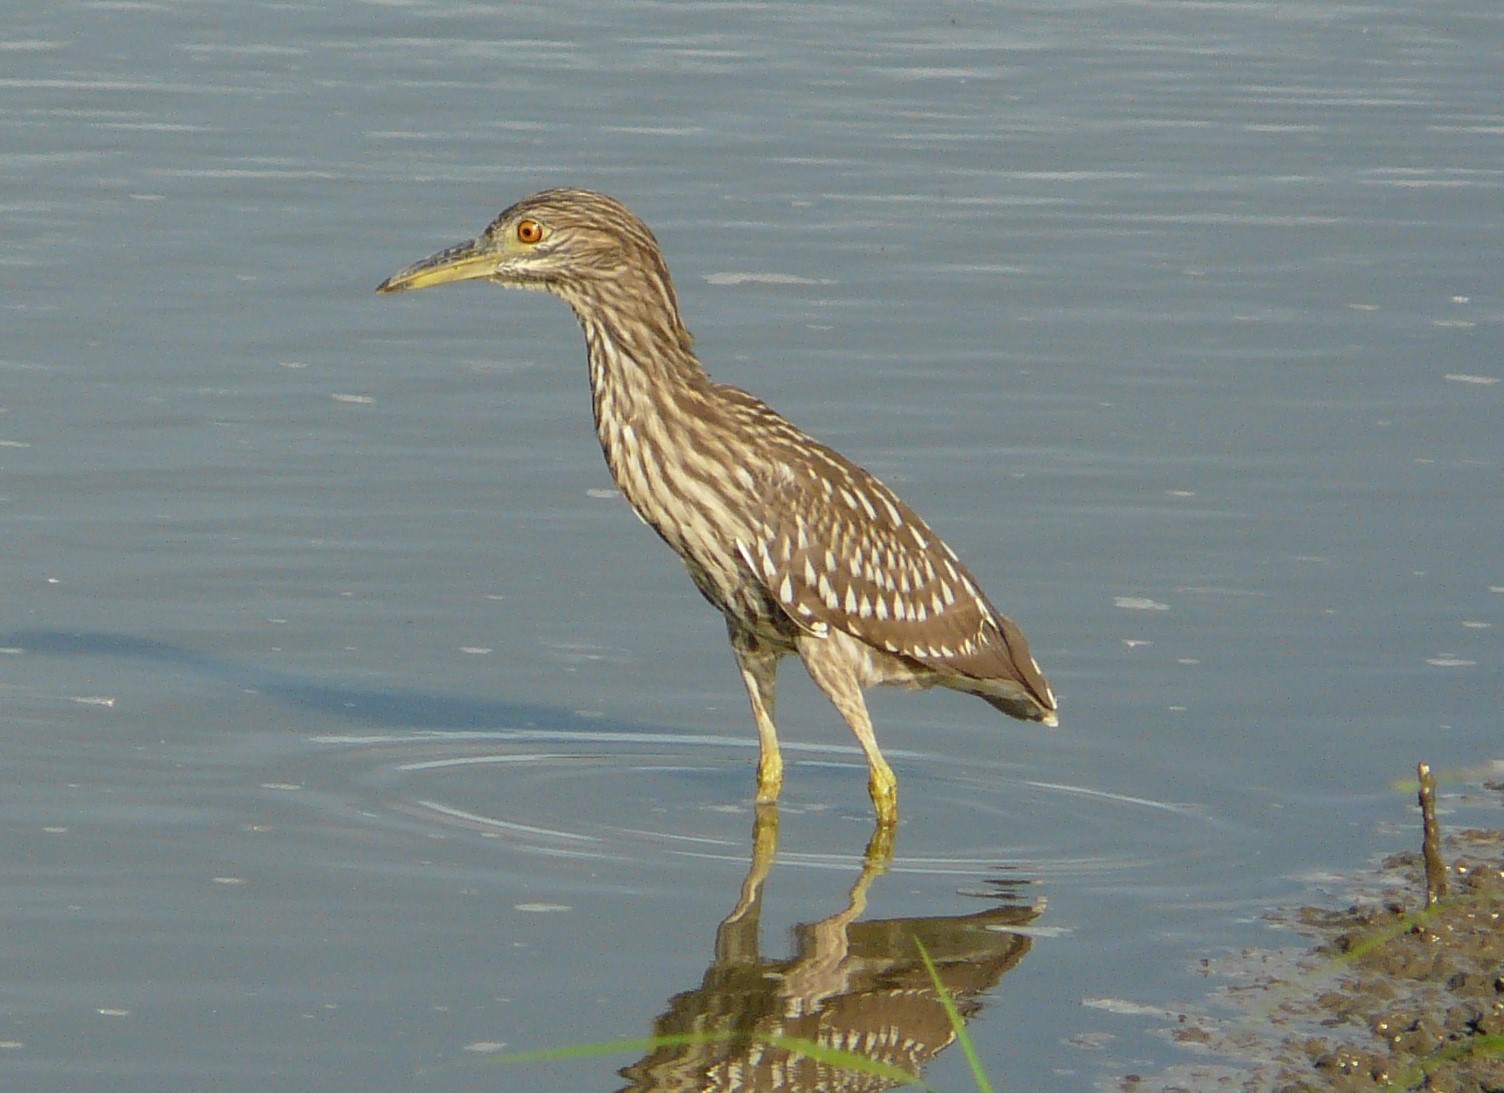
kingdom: Animalia
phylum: Chordata
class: Aves
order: Pelecaniformes
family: Ardeidae
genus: Nycticorax
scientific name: Nycticorax nycticorax
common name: Black-crowned night heron
